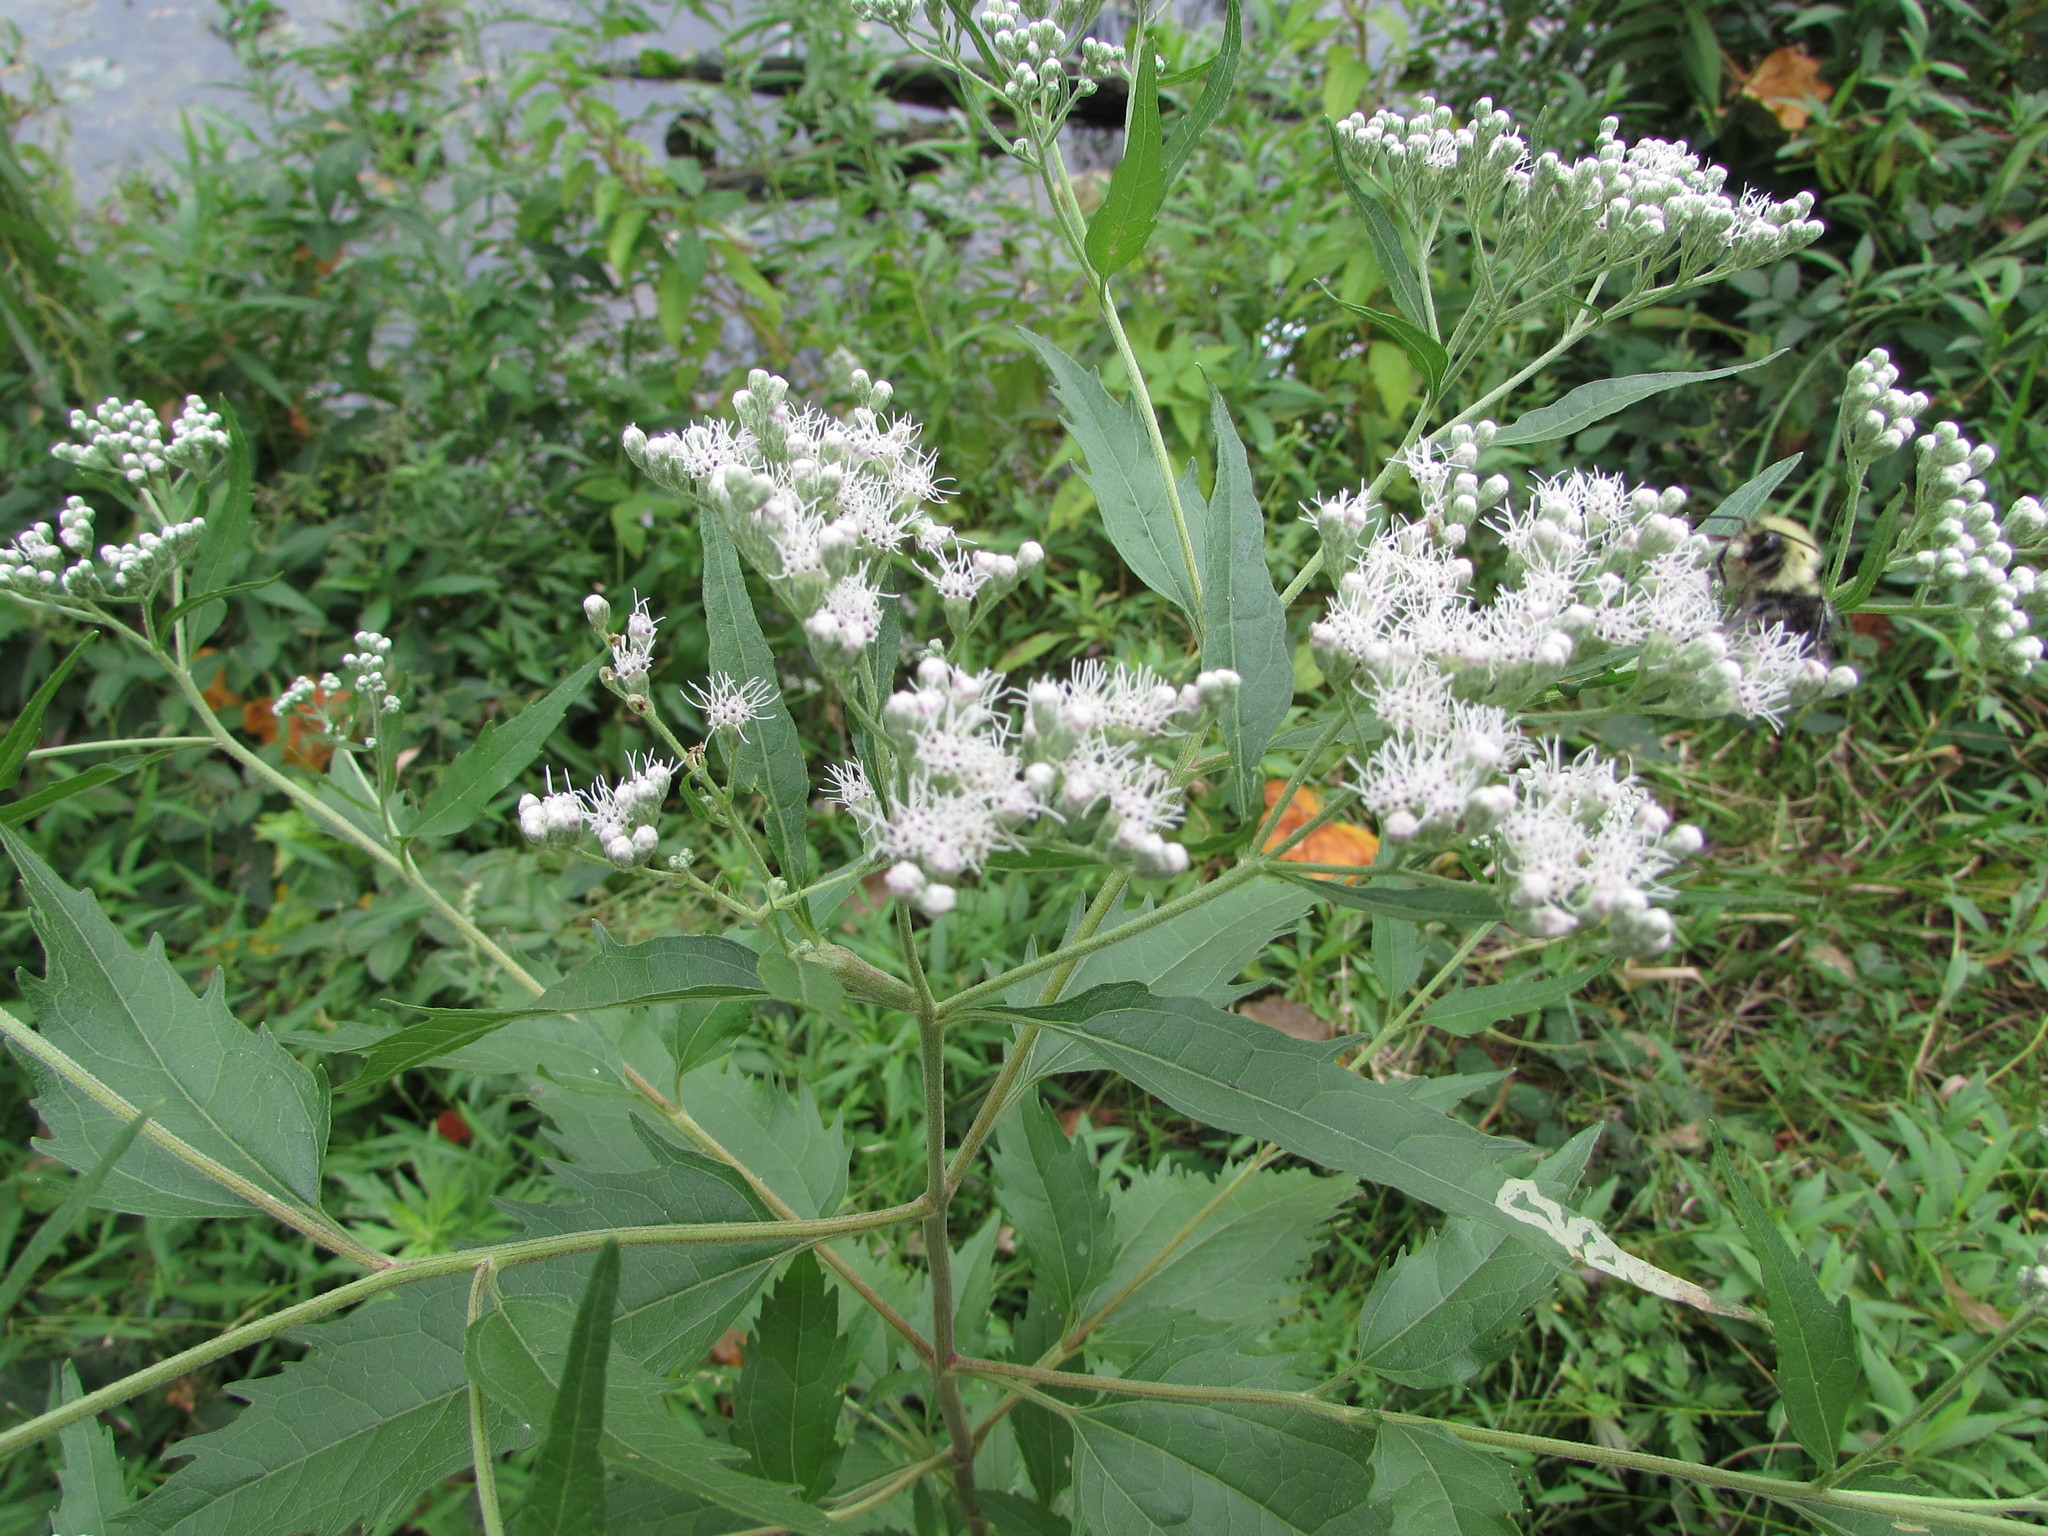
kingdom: Plantae
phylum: Tracheophyta
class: Magnoliopsida
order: Asterales
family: Asteraceae
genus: Eupatorium
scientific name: Eupatorium serotinum
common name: Late boneset
